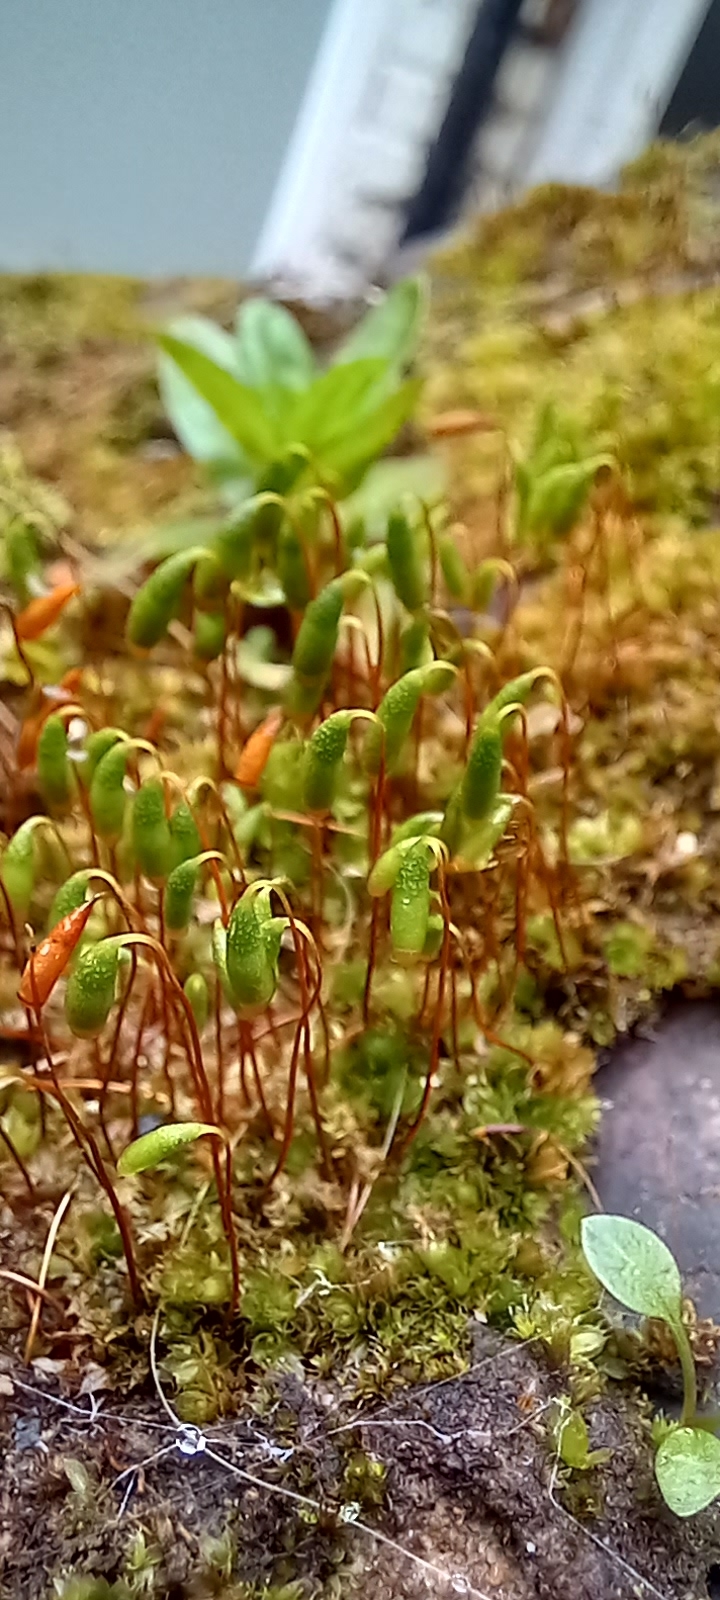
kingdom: Plantae
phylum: Bryophyta
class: Bryopsida
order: Bryales
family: Bryaceae
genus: Rosulabryum
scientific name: Rosulabryum capillare
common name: Capillary thread-moss
